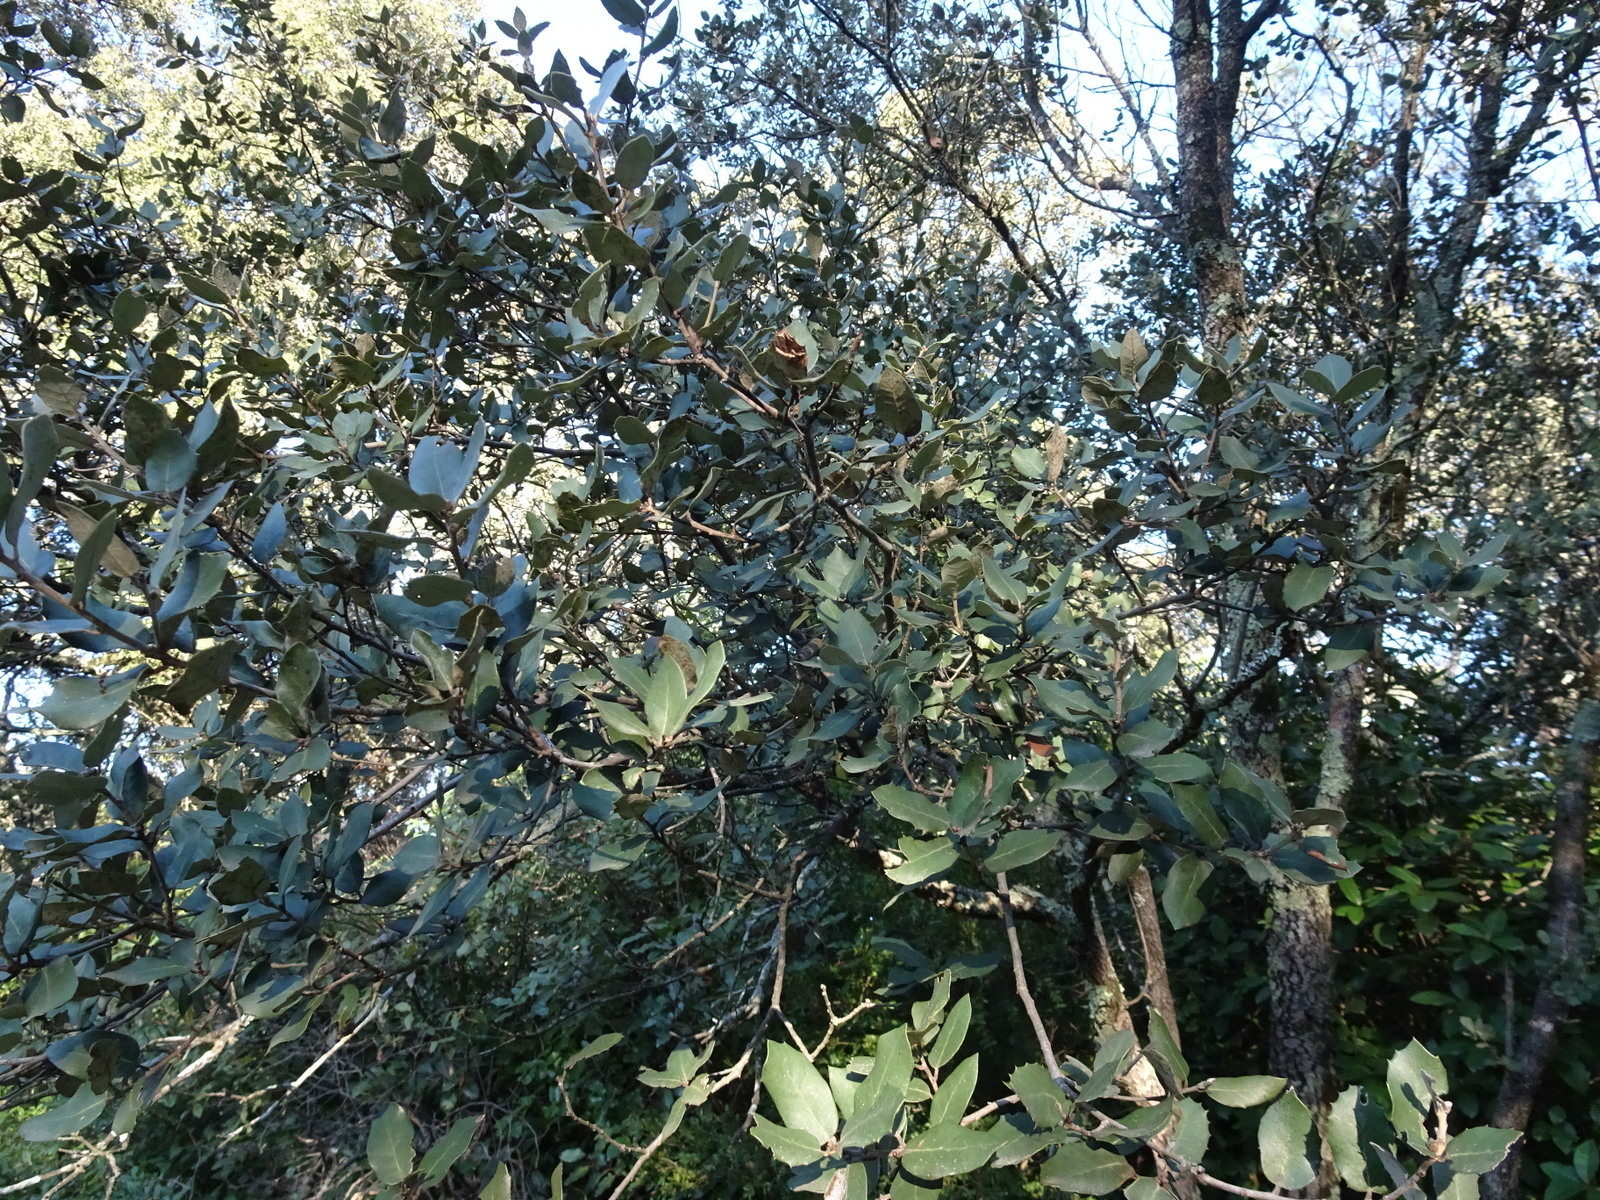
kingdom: Plantae
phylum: Tracheophyta
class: Magnoliopsida
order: Fagales
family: Fagaceae
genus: Quercus
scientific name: Quercus ilex
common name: Evergreen oak
